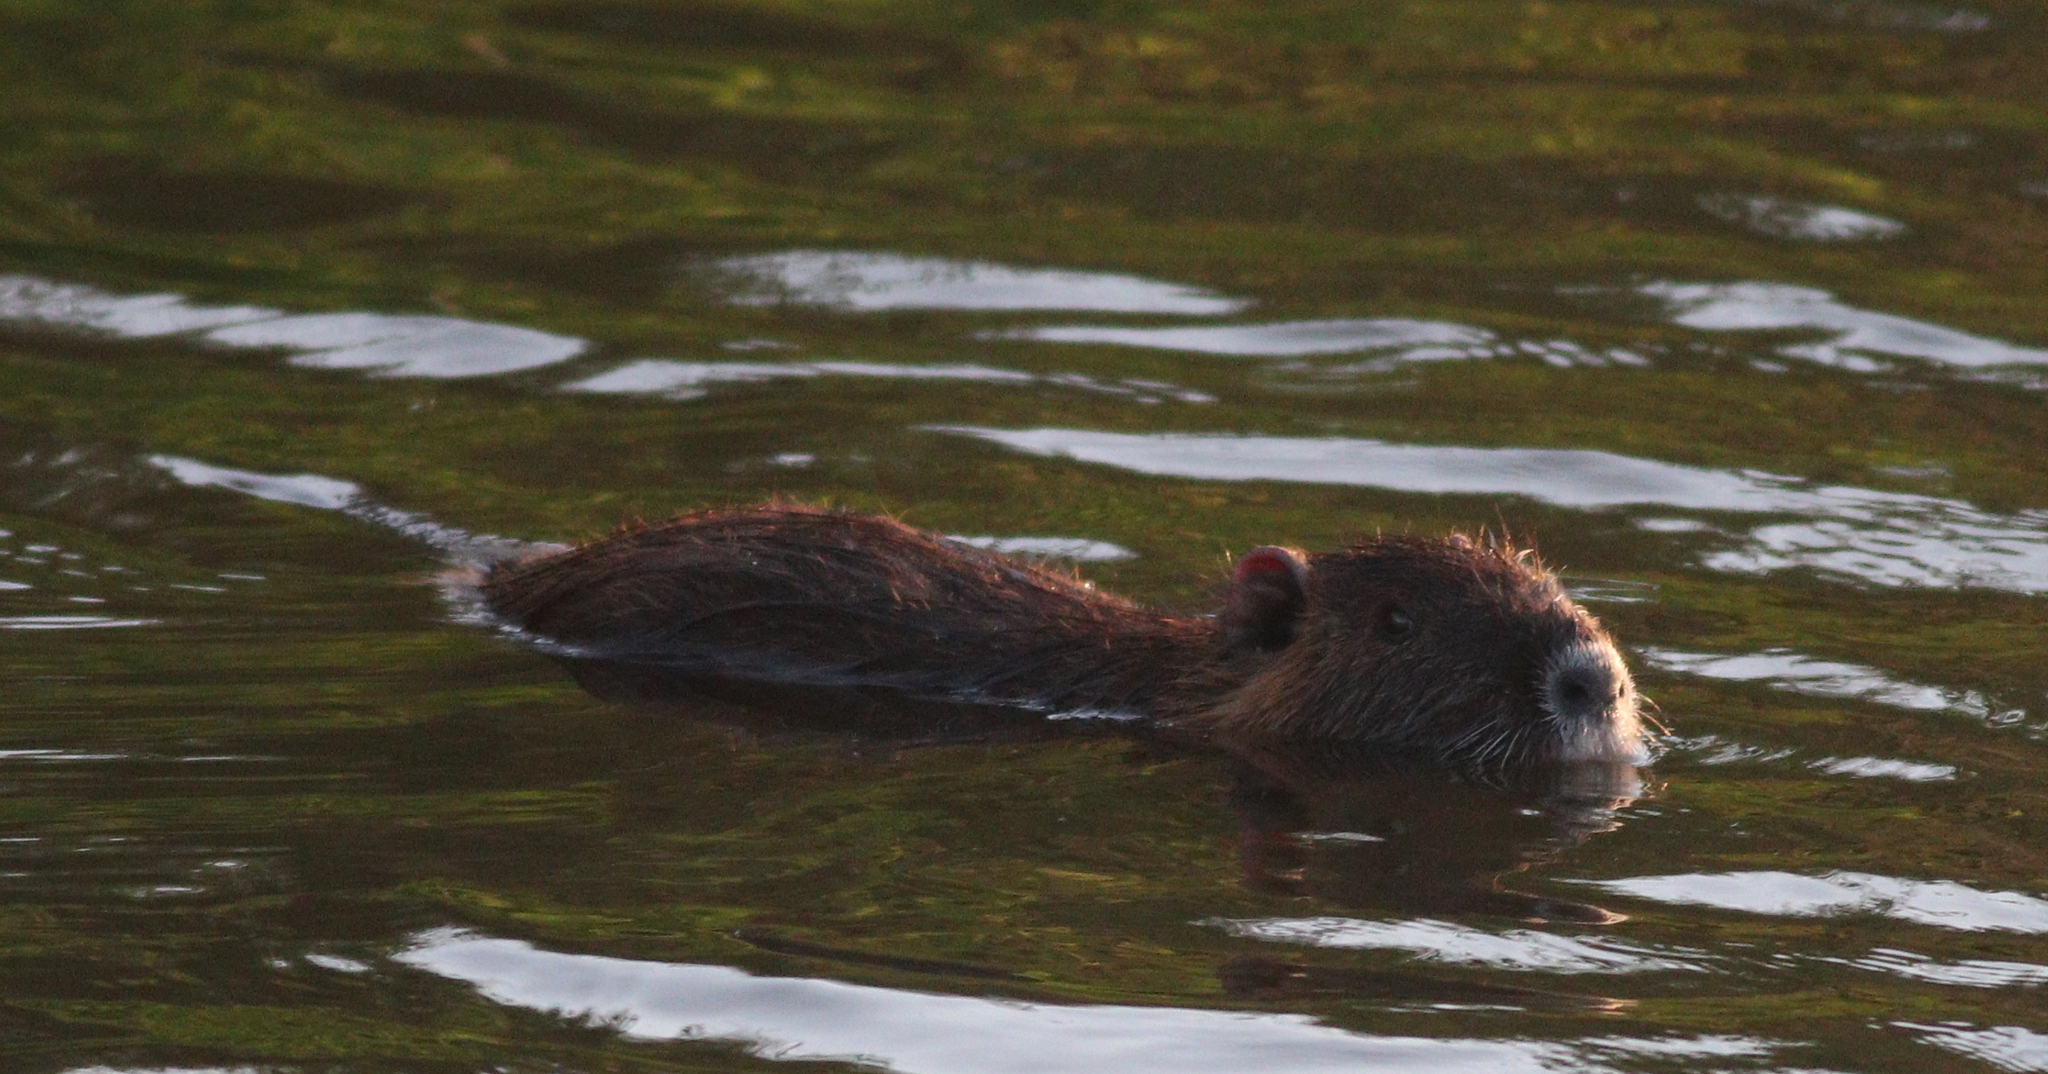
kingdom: Animalia
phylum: Chordata
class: Mammalia
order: Rodentia
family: Myocastoridae
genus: Myocastor
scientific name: Myocastor coypus
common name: Coypu
